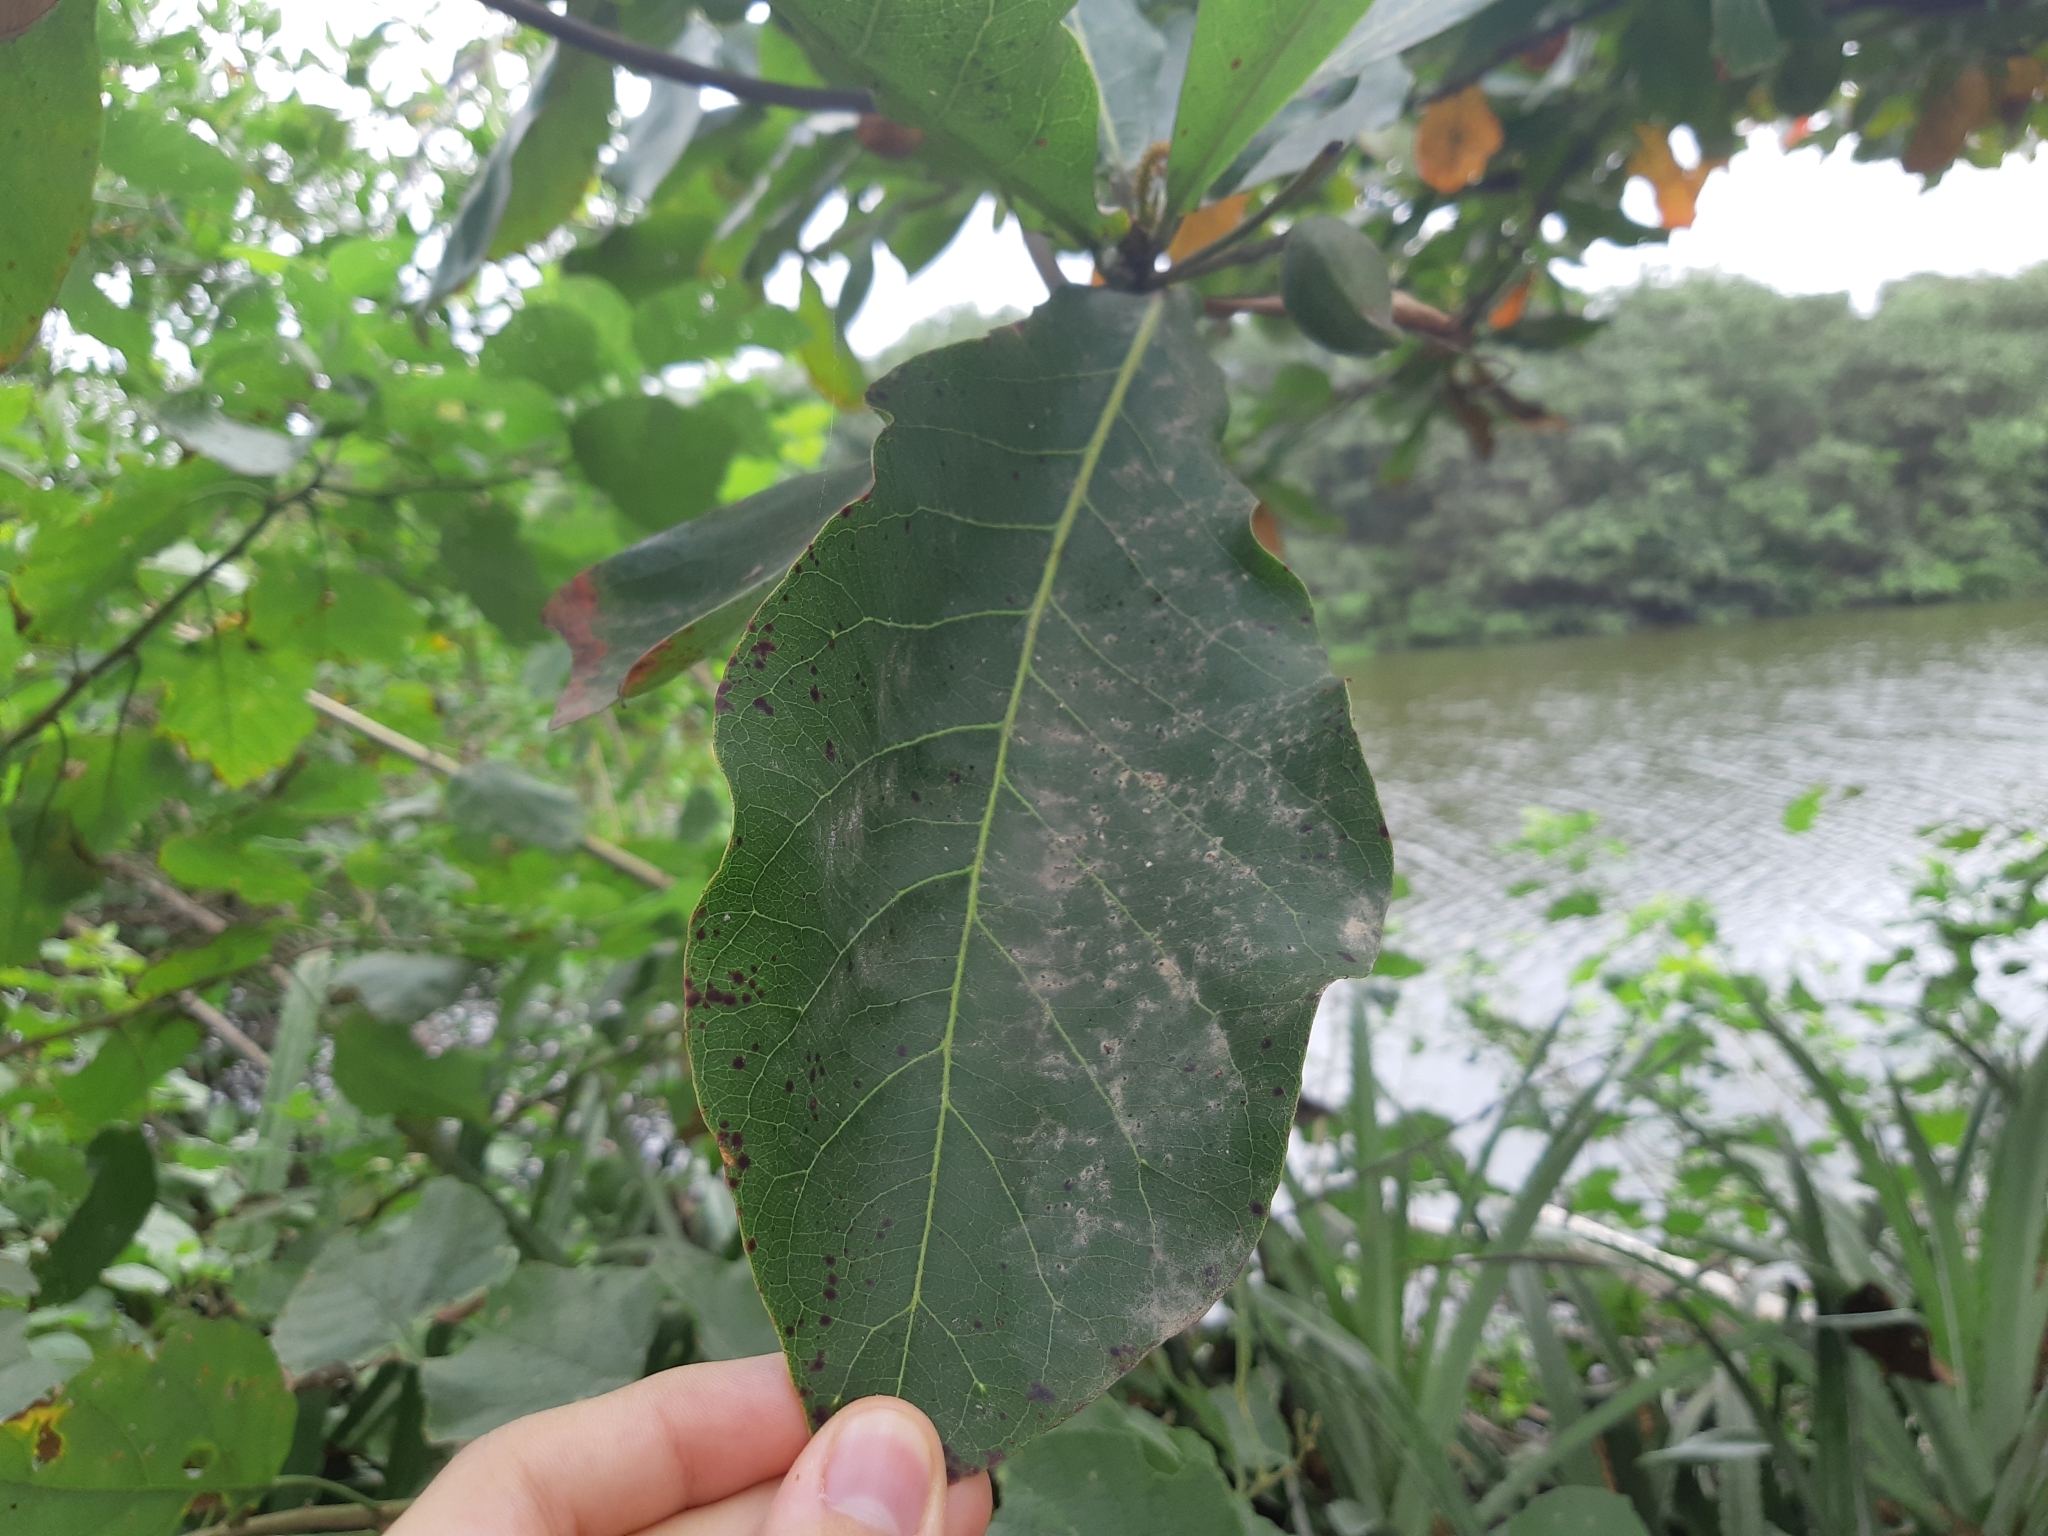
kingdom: Plantae
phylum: Tracheophyta
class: Magnoliopsida
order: Myrtales
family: Combretaceae
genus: Terminalia
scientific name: Terminalia catappa
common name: Tropical almond
